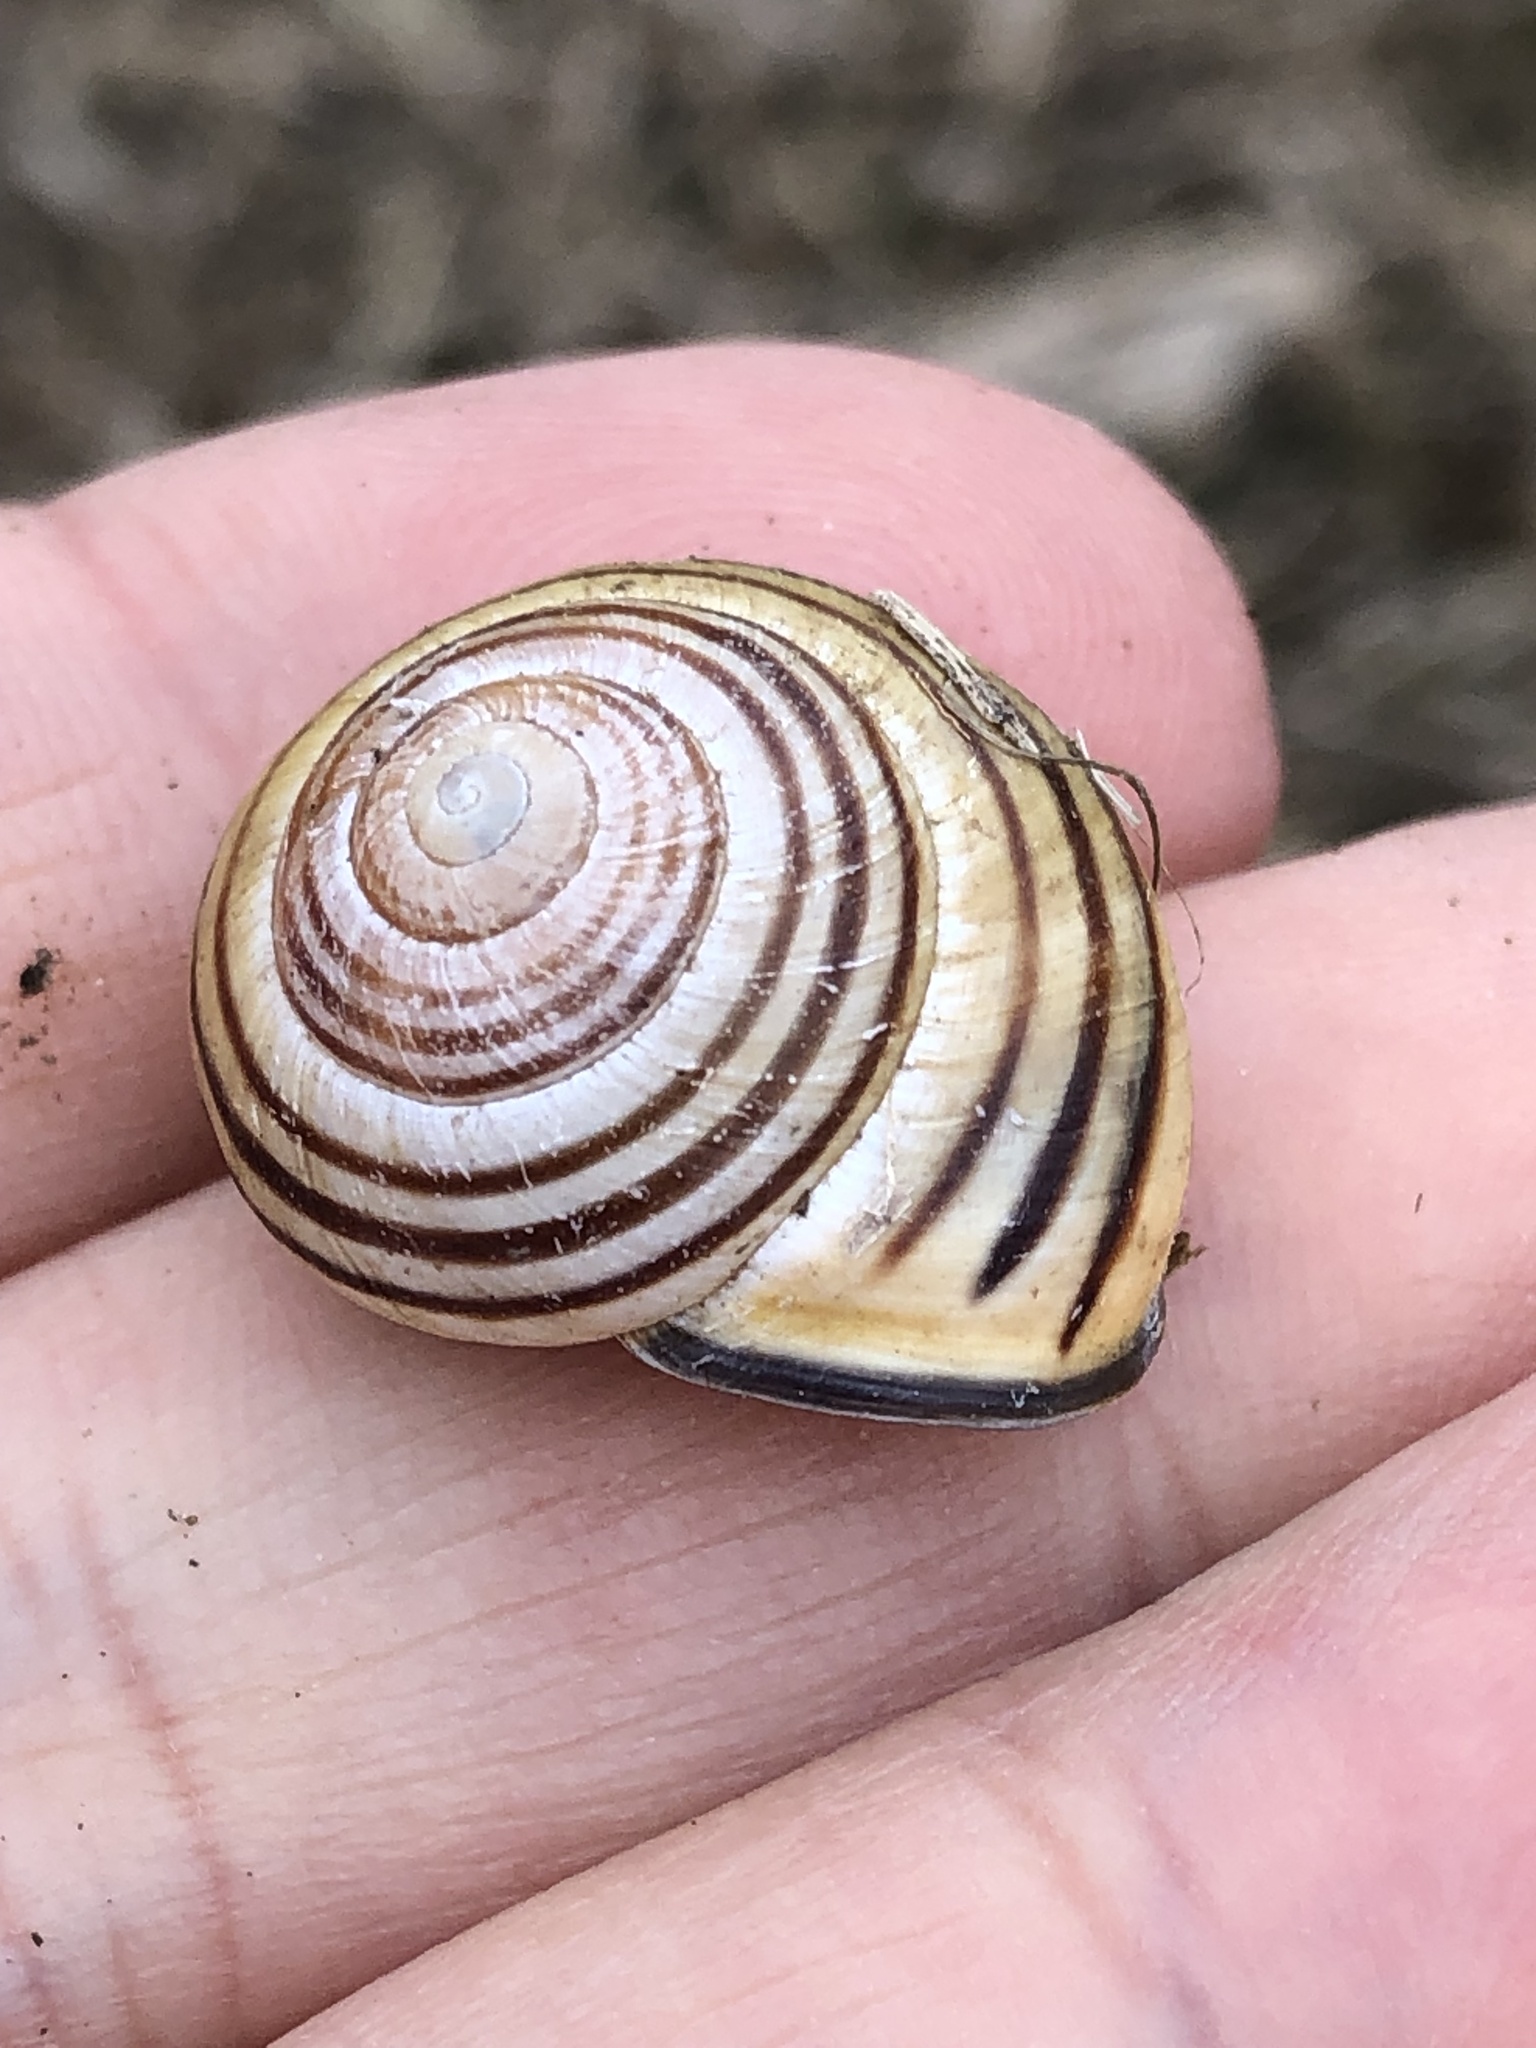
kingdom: Animalia
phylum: Mollusca
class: Gastropoda
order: Stylommatophora
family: Helicidae
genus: Cepaea
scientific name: Cepaea nemoralis
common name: Grovesnail
